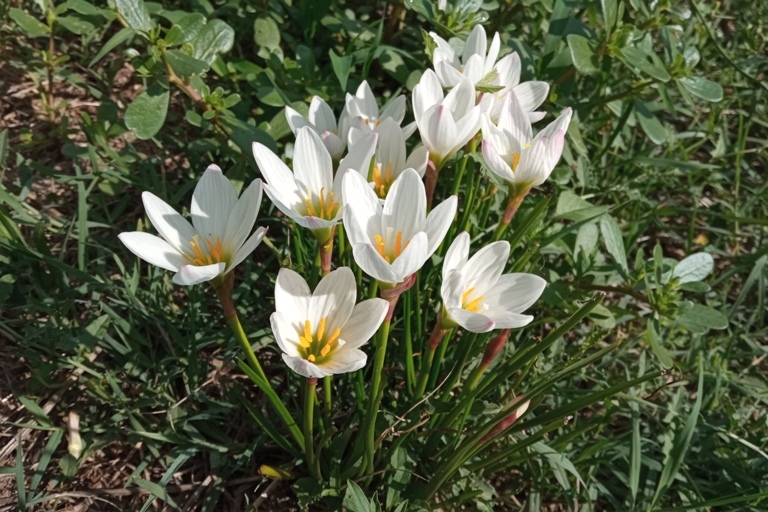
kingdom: Plantae
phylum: Tracheophyta
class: Liliopsida
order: Asparagales
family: Amaryllidaceae
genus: Zephyranthes
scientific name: Zephyranthes candida
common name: Autumn zephyrlily
